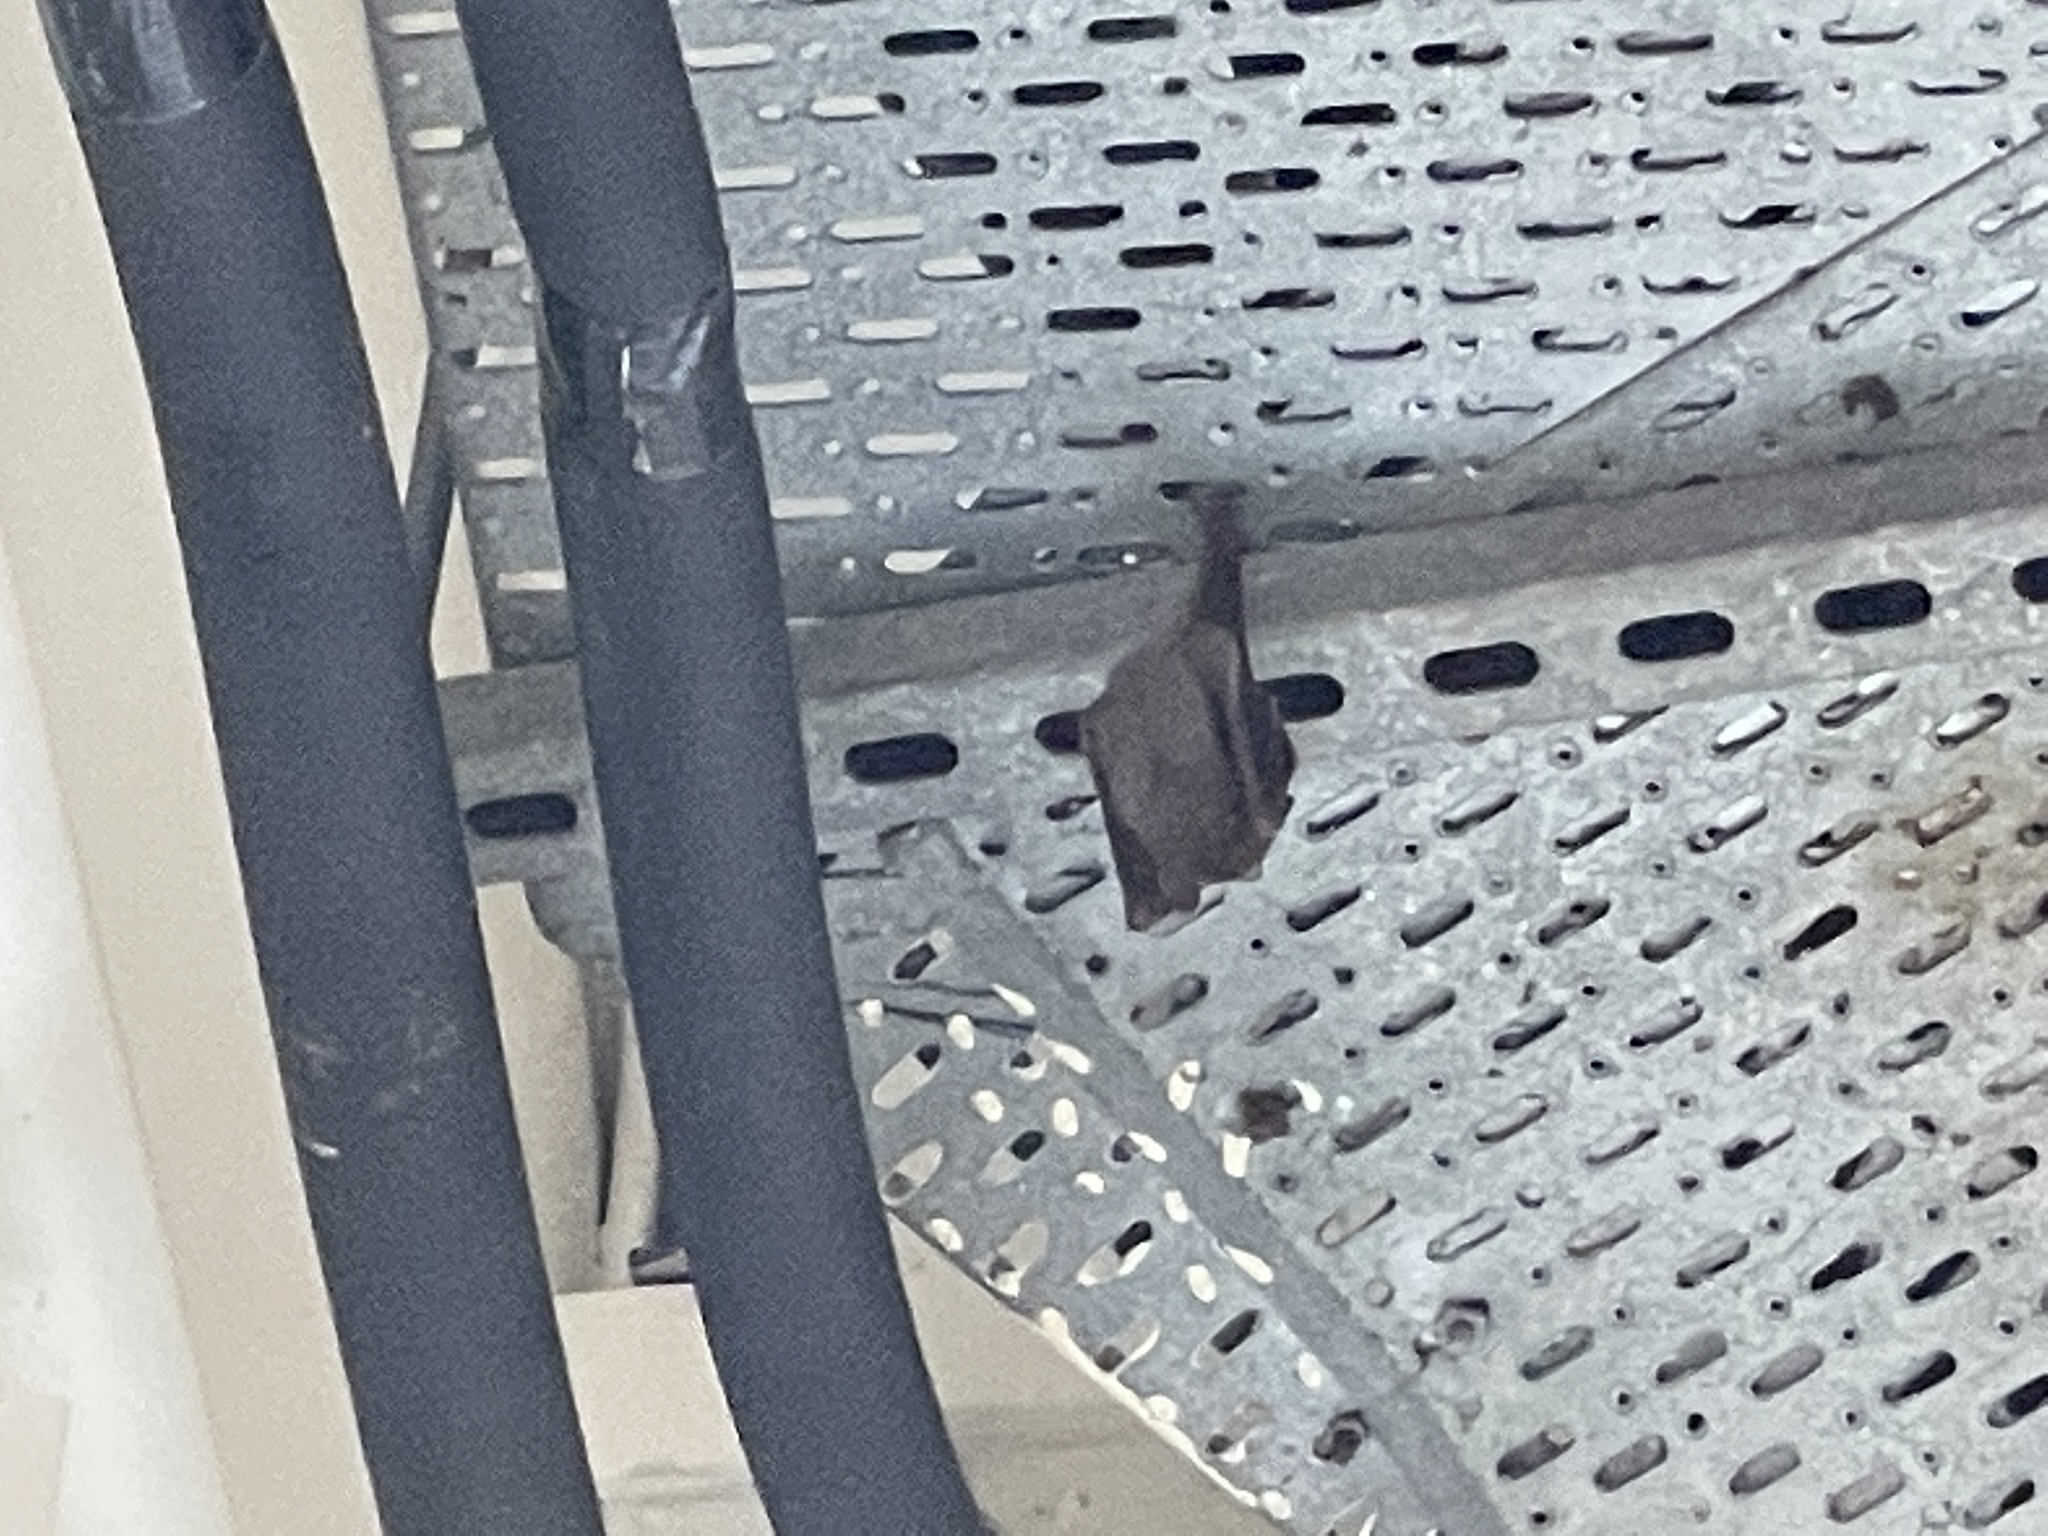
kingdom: Animalia
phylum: Chordata
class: Mammalia
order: Chiroptera
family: Pteropodidae
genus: Cynopterus
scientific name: Cynopterus sphinx
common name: Greater short-nosed fruit bat
